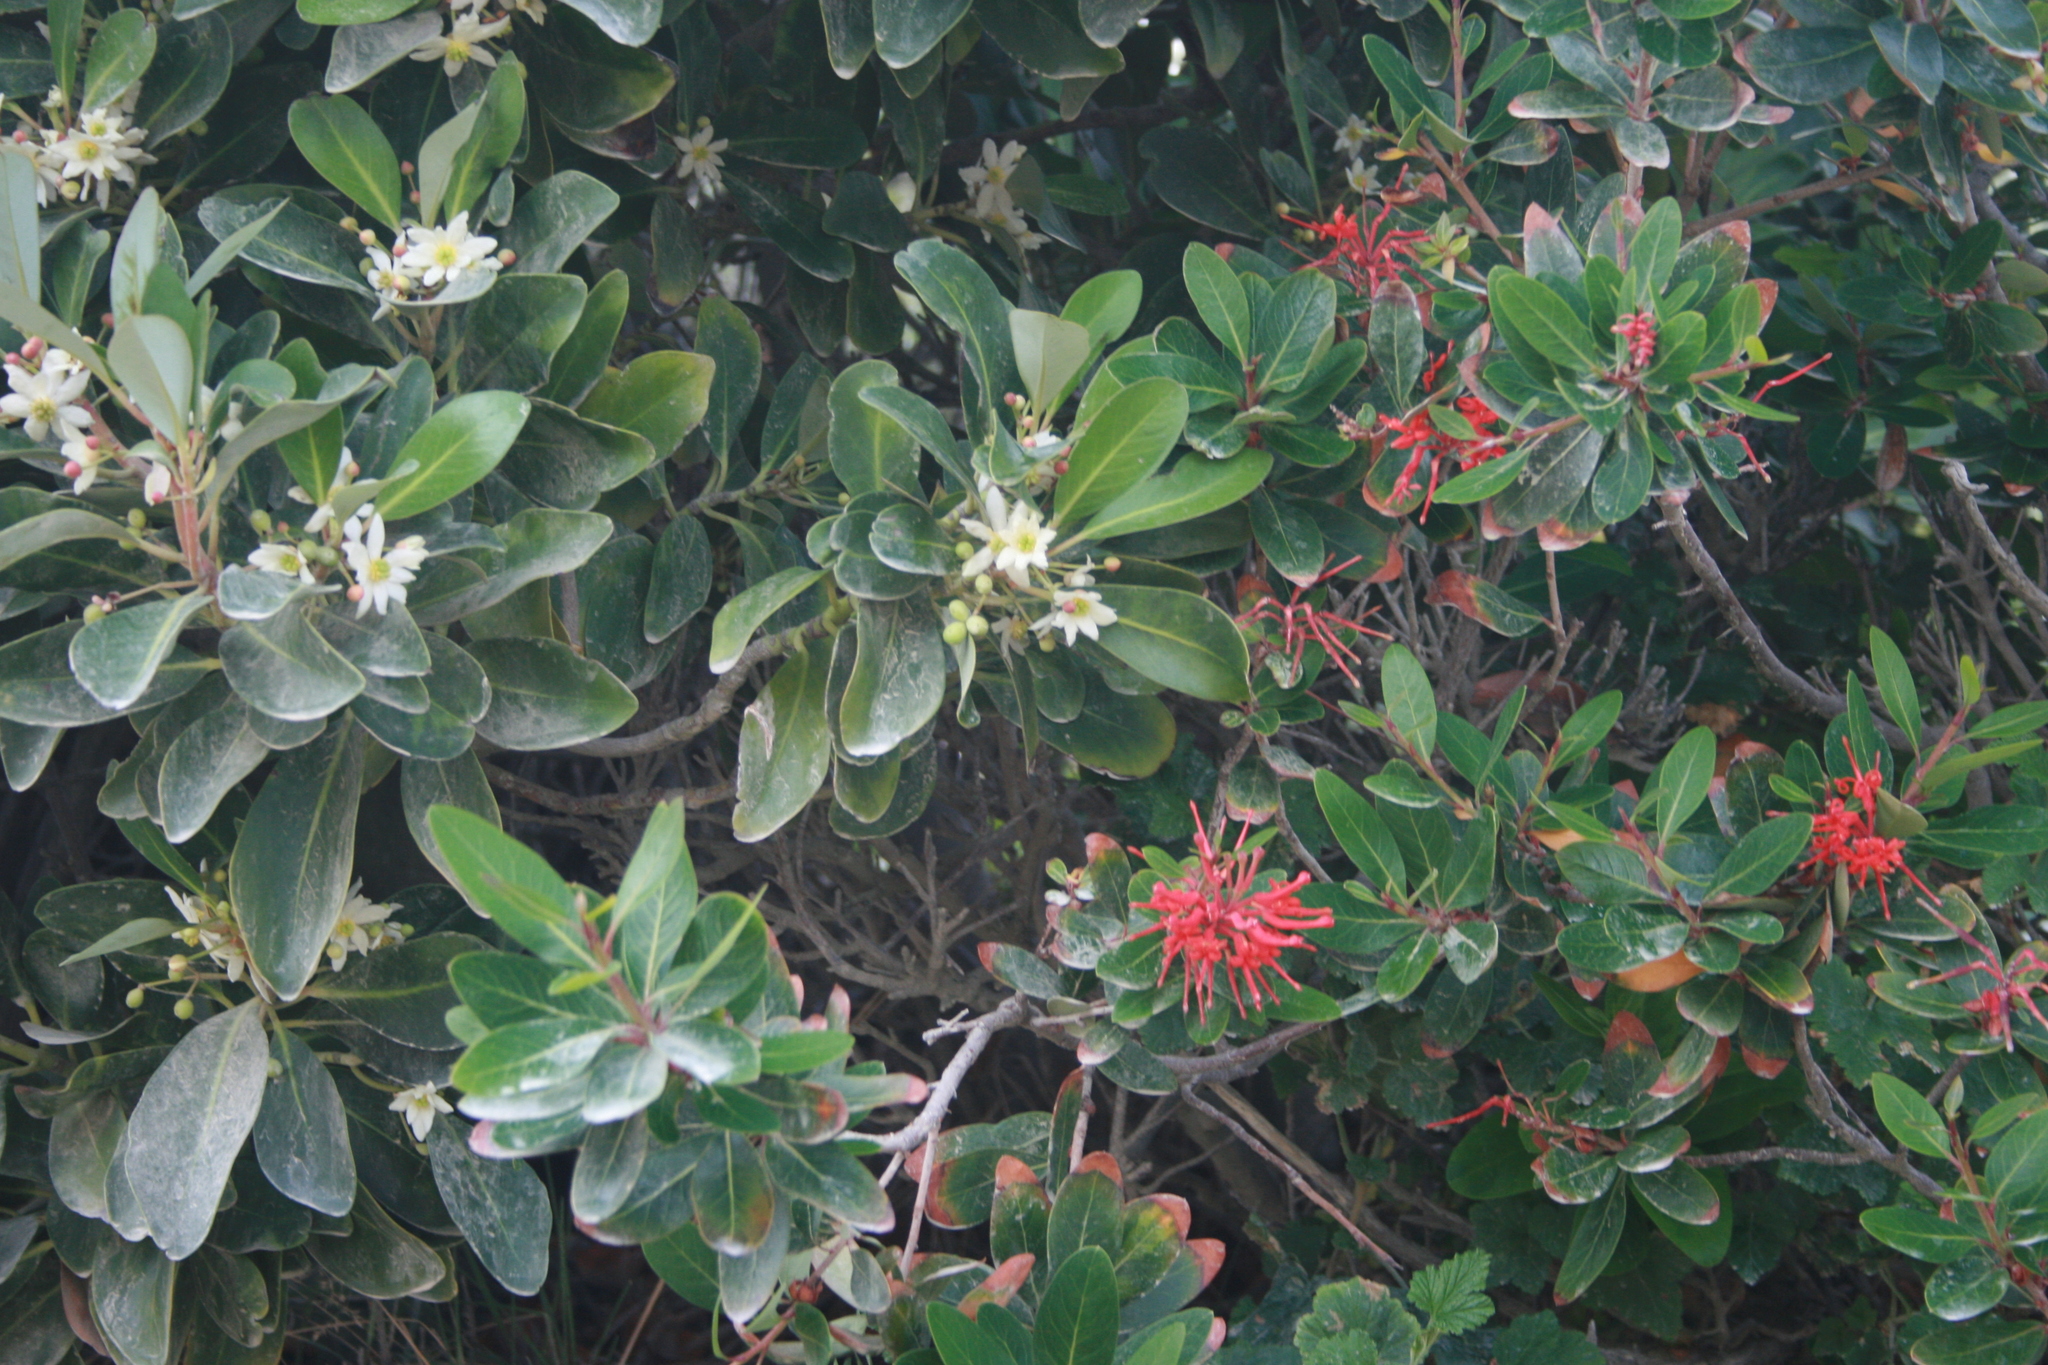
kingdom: Plantae
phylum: Tracheophyta
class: Magnoliopsida
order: Proteales
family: Proteaceae
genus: Embothrium
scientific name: Embothrium coccineum
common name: Chilean firebush
